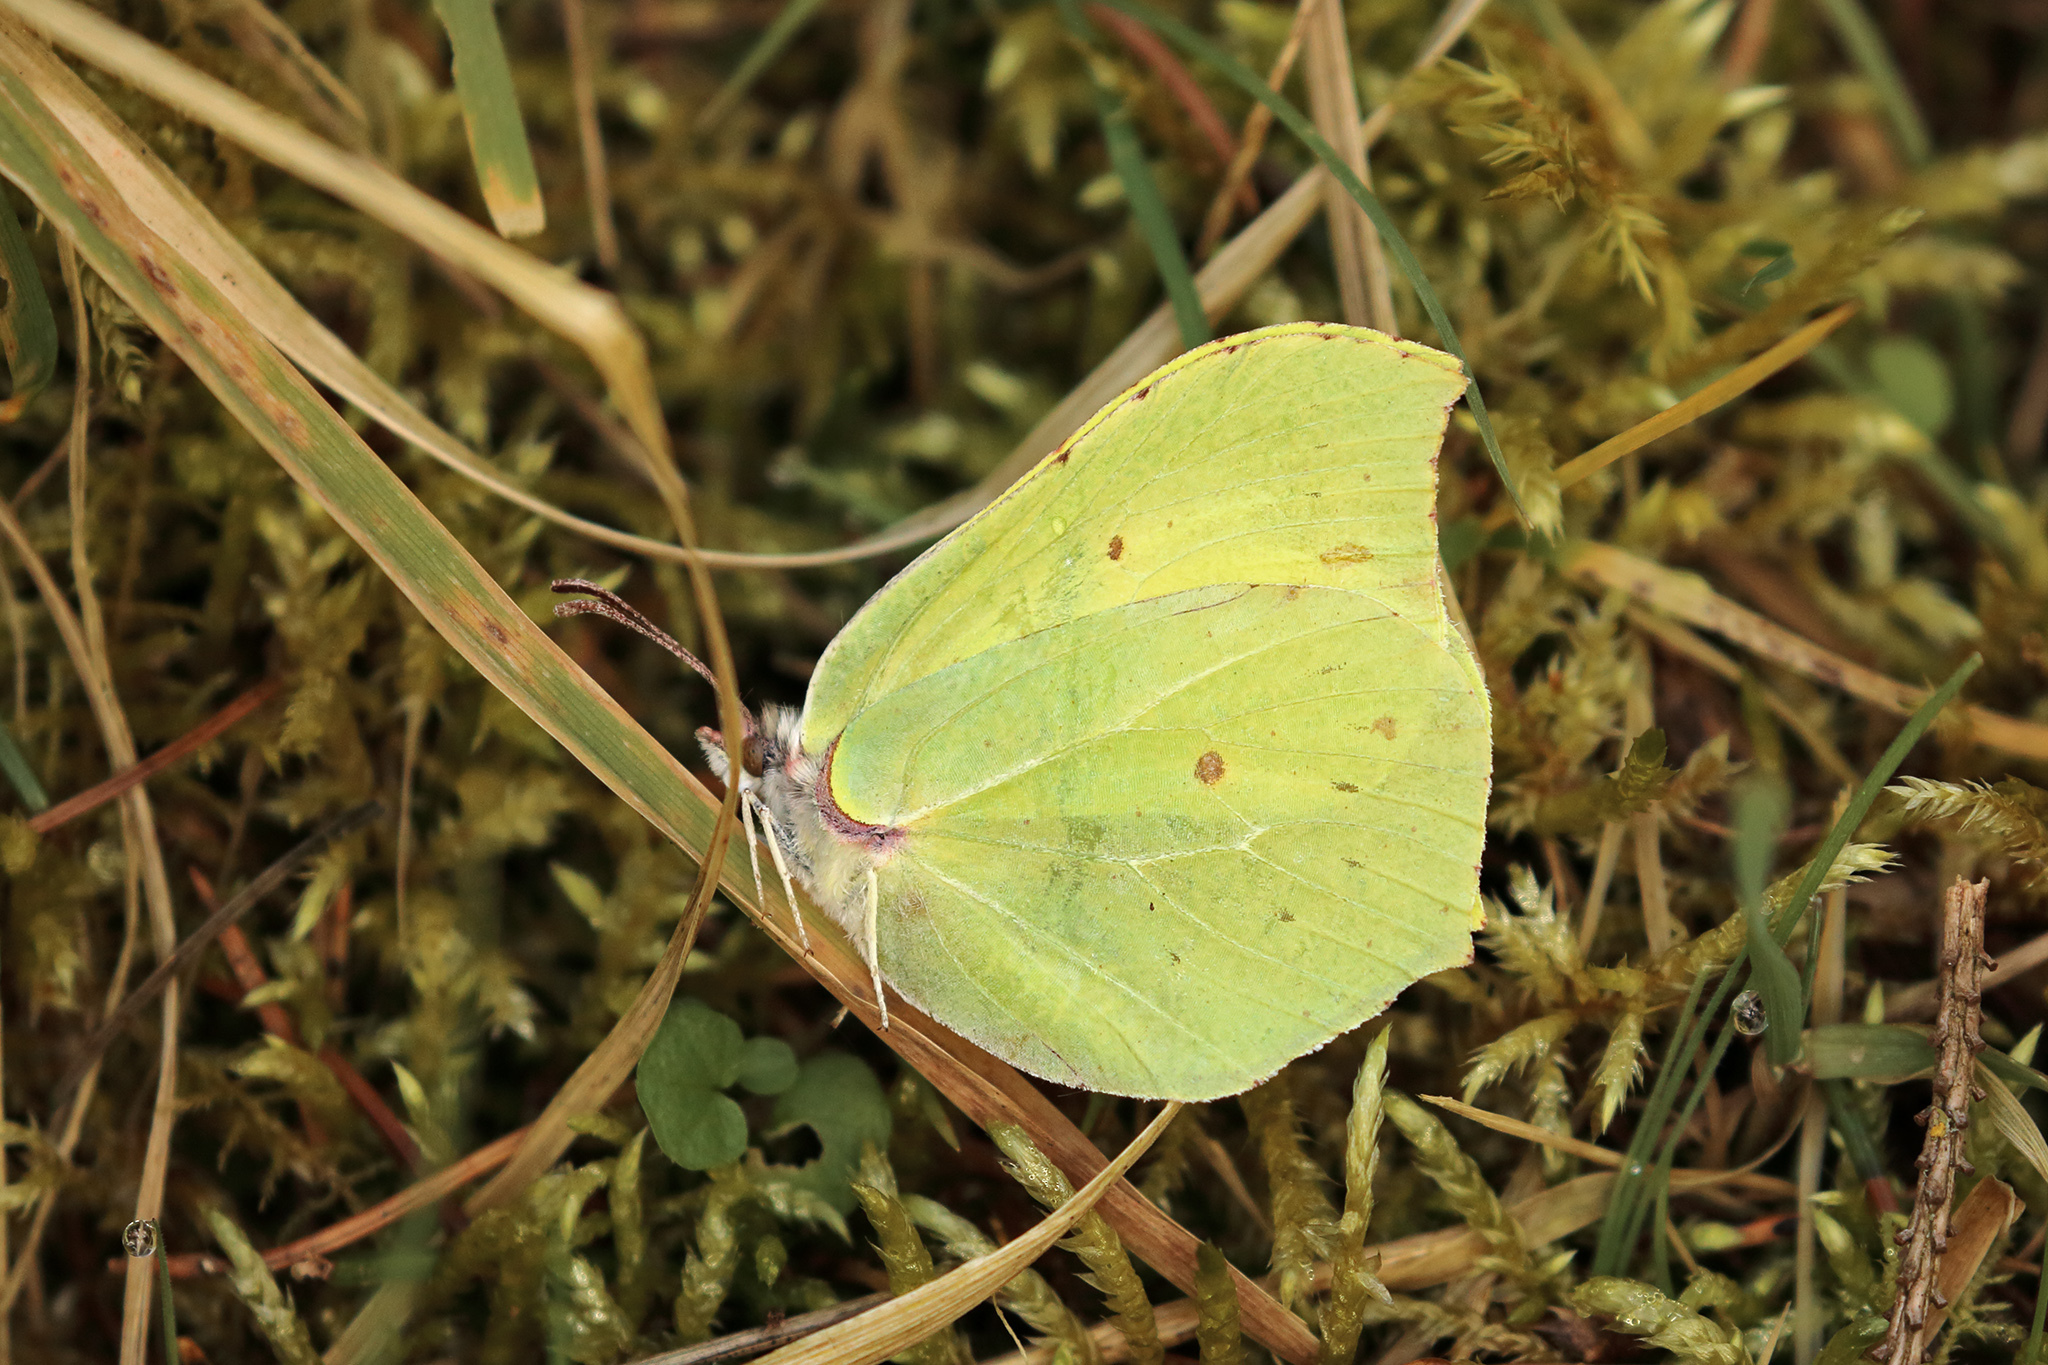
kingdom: Animalia
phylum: Arthropoda
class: Insecta
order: Lepidoptera
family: Pieridae
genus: Gonepteryx
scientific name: Gonepteryx rhamni
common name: Brimstone
